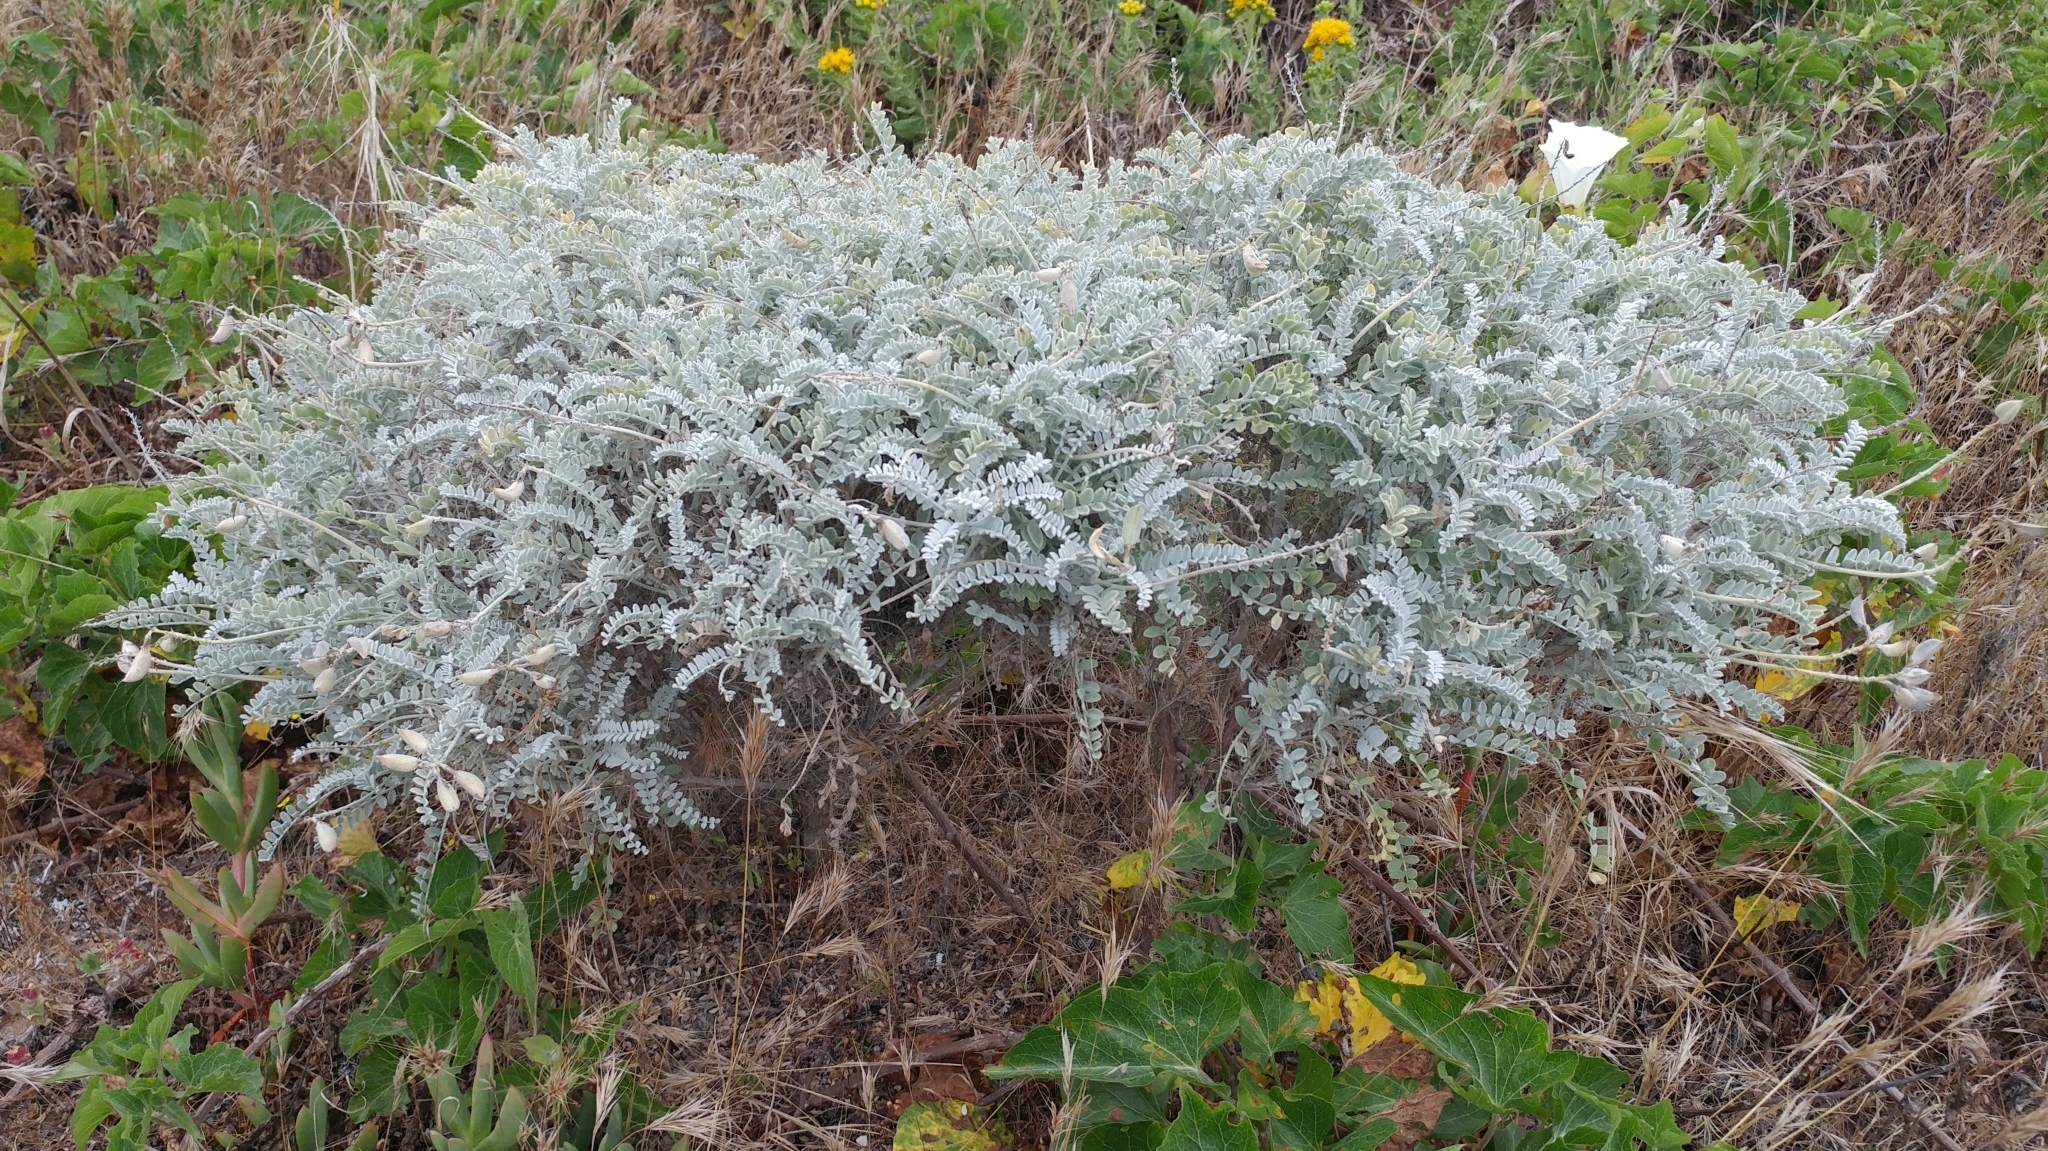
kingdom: Plantae
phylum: Tracheophyta
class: Magnoliopsida
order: Fabales
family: Fabaceae
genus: Astragalus
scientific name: Astragalus traskiae
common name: Trask's milk-vetch
